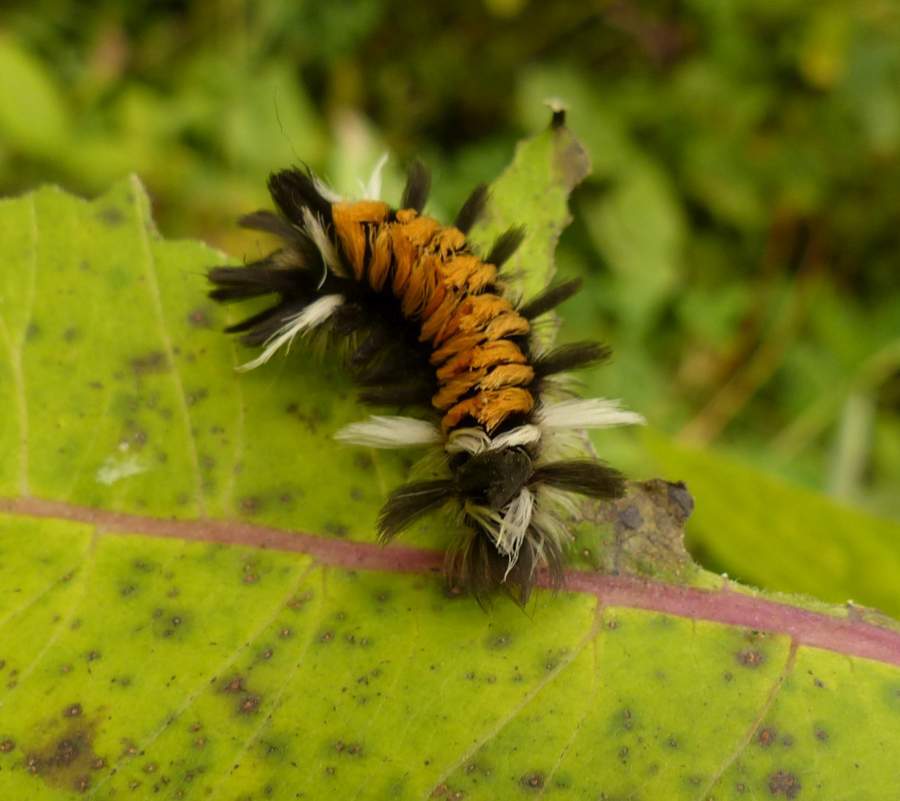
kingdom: Animalia
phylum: Arthropoda
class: Insecta
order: Lepidoptera
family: Erebidae
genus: Euchaetes
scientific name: Euchaetes egle
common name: Milkweed tussock moth
